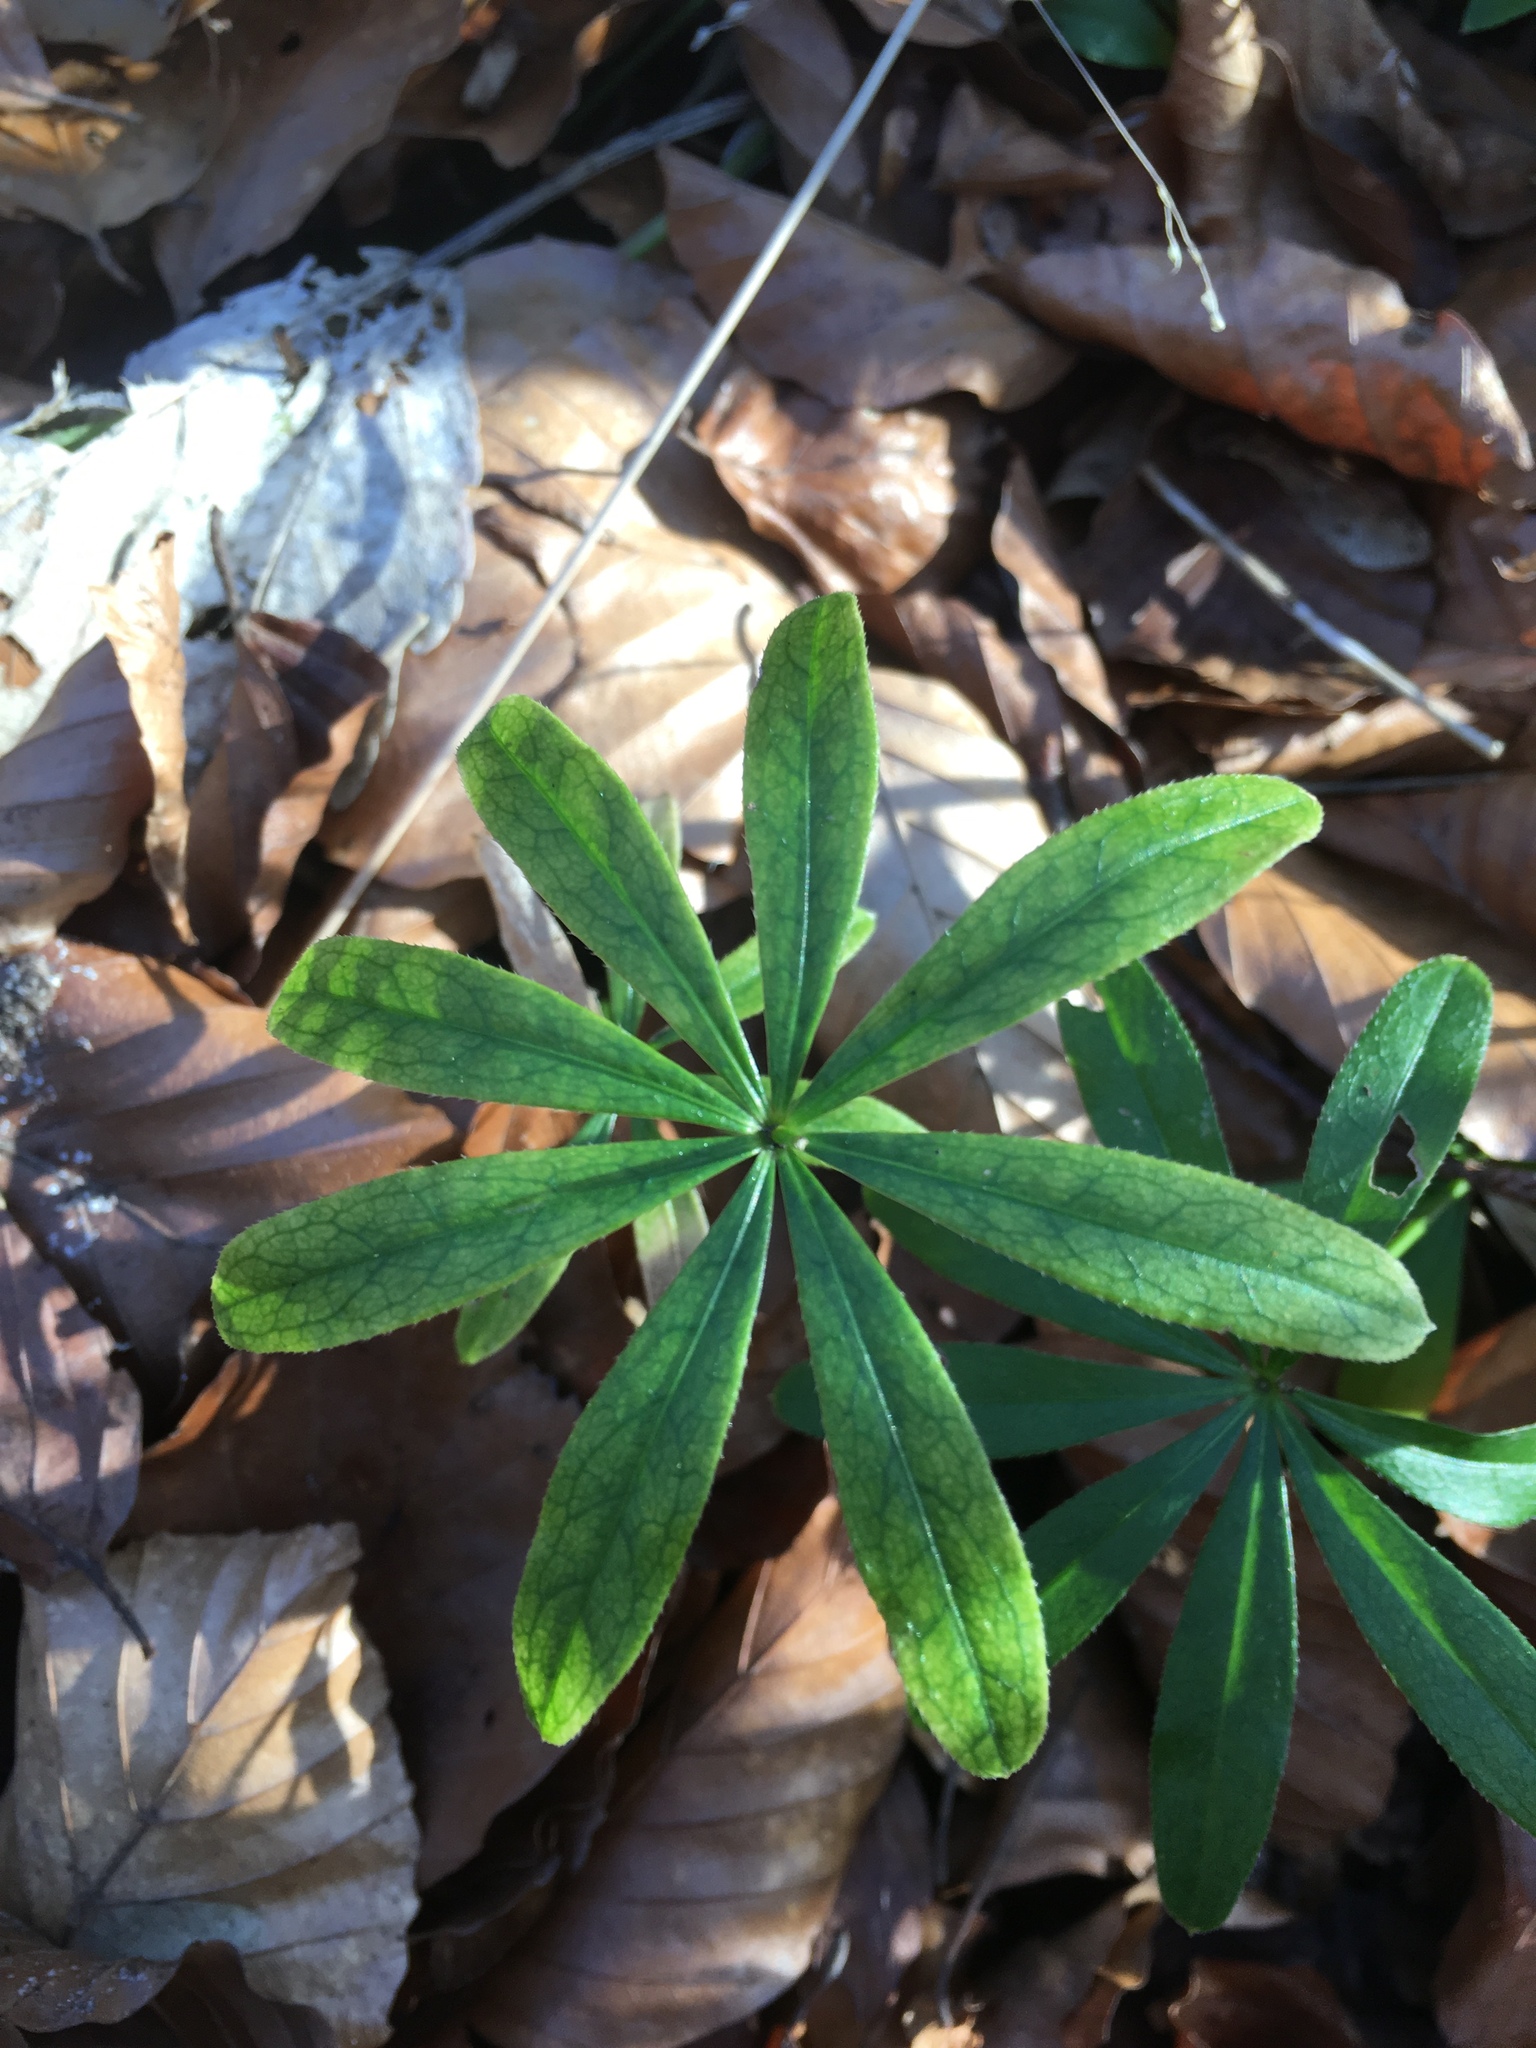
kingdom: Plantae
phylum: Tracheophyta
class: Magnoliopsida
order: Gentianales
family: Rubiaceae
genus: Galium
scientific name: Galium aparine
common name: Cleavers
